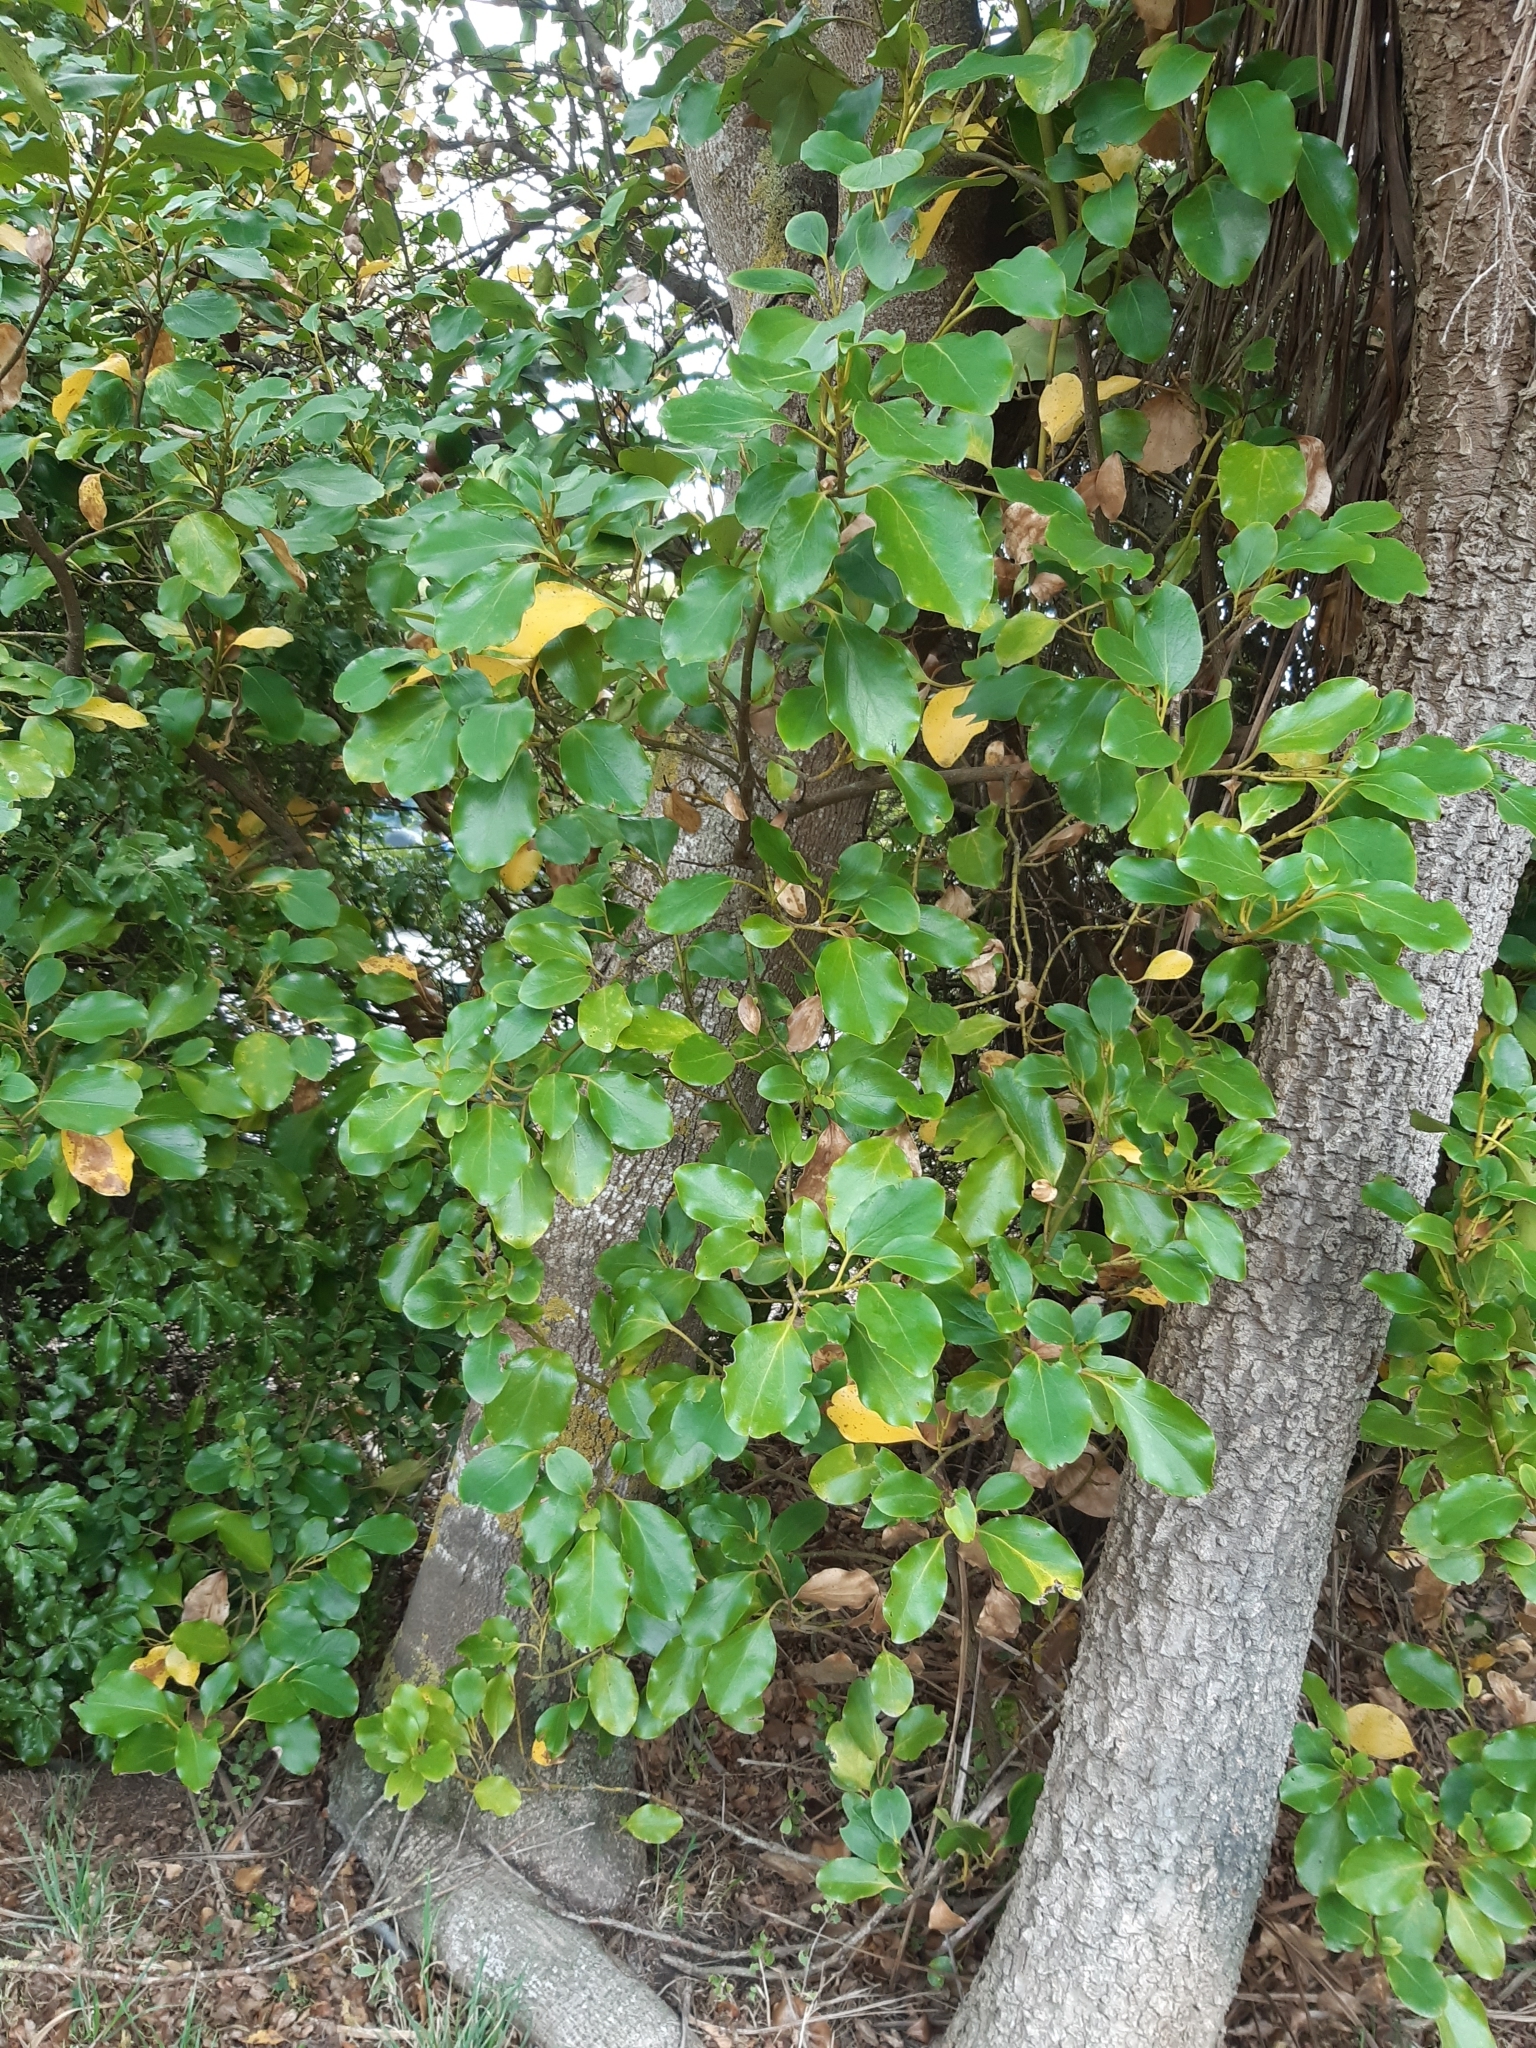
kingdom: Plantae
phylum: Tracheophyta
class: Magnoliopsida
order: Apiales
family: Griseliniaceae
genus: Griselinia
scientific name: Griselinia littoralis
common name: New zealand broadleaf
